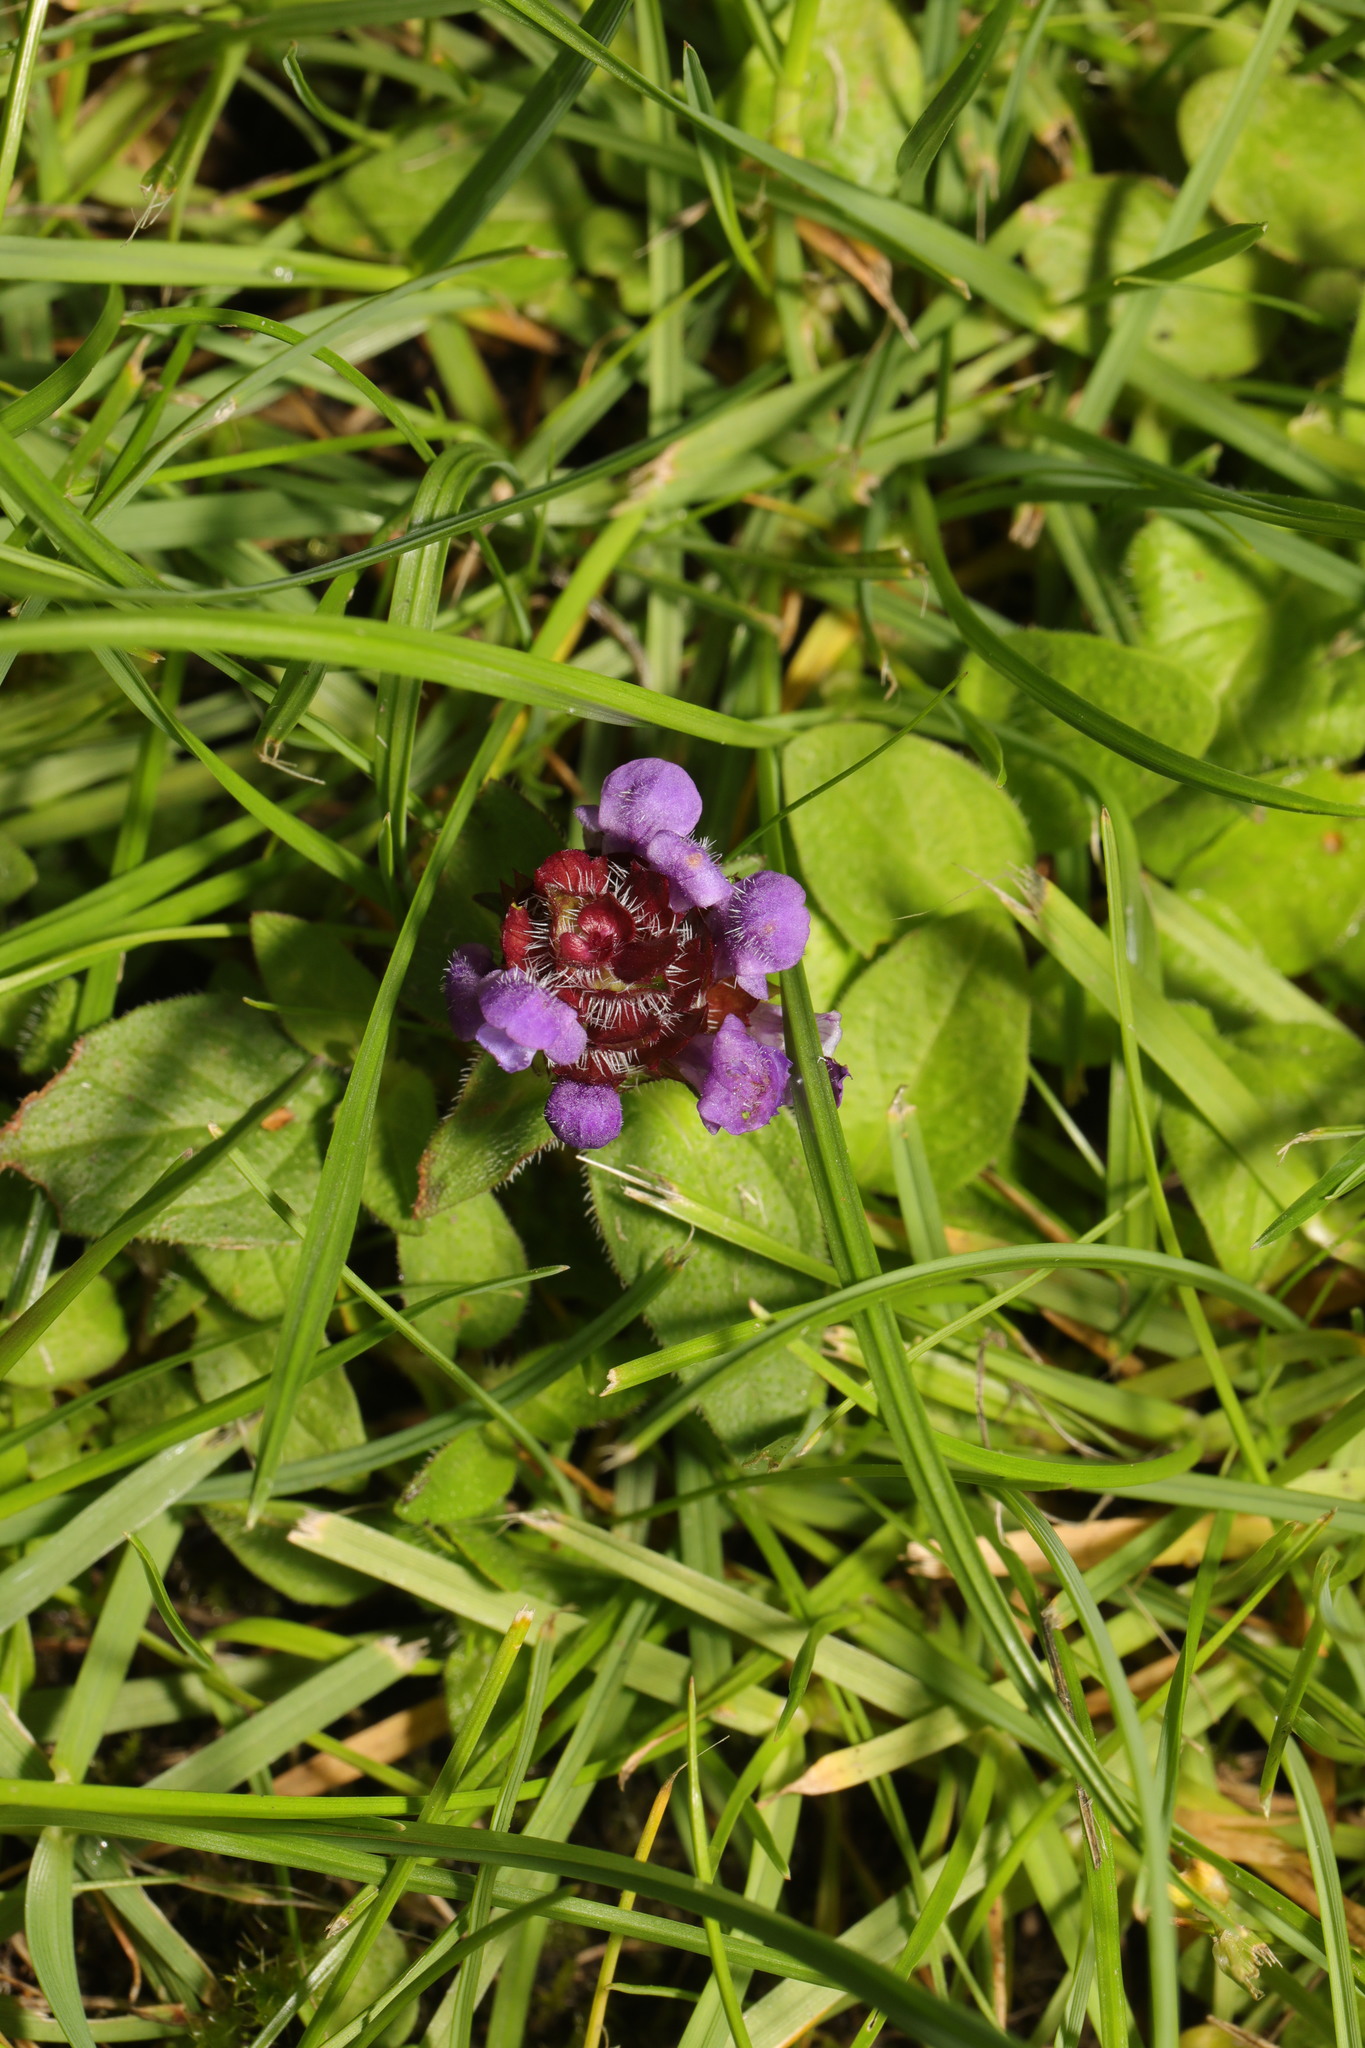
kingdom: Plantae
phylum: Tracheophyta
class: Magnoliopsida
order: Lamiales
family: Lamiaceae
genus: Prunella
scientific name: Prunella vulgaris
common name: Heal-all
